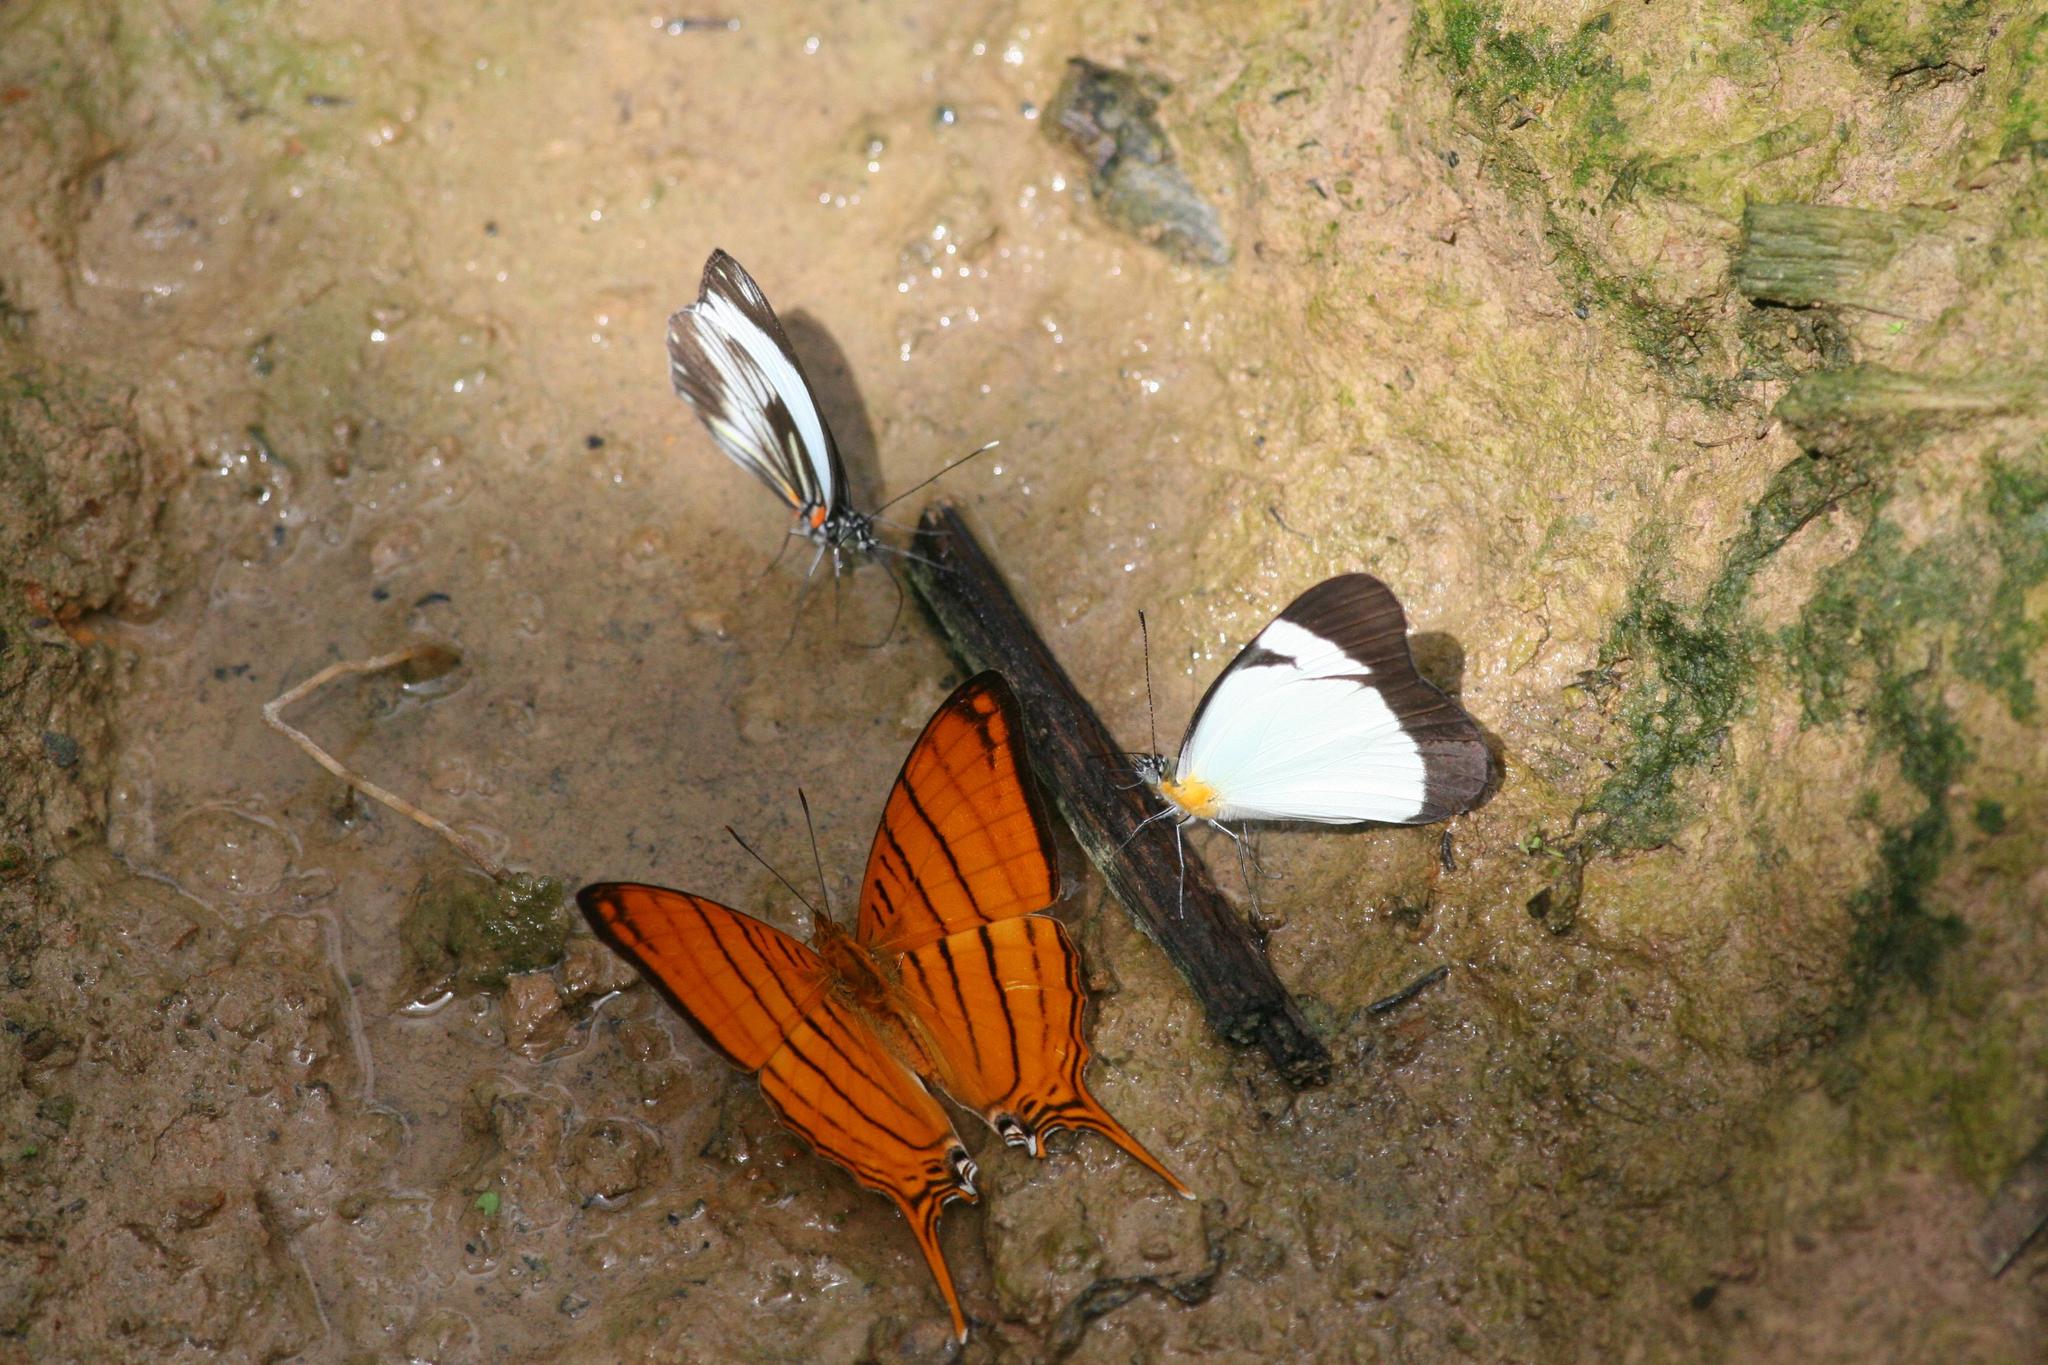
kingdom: Animalia
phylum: Arthropoda
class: Insecta
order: Lepidoptera
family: Nymphalidae
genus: Marpesia
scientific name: Marpesia berania
